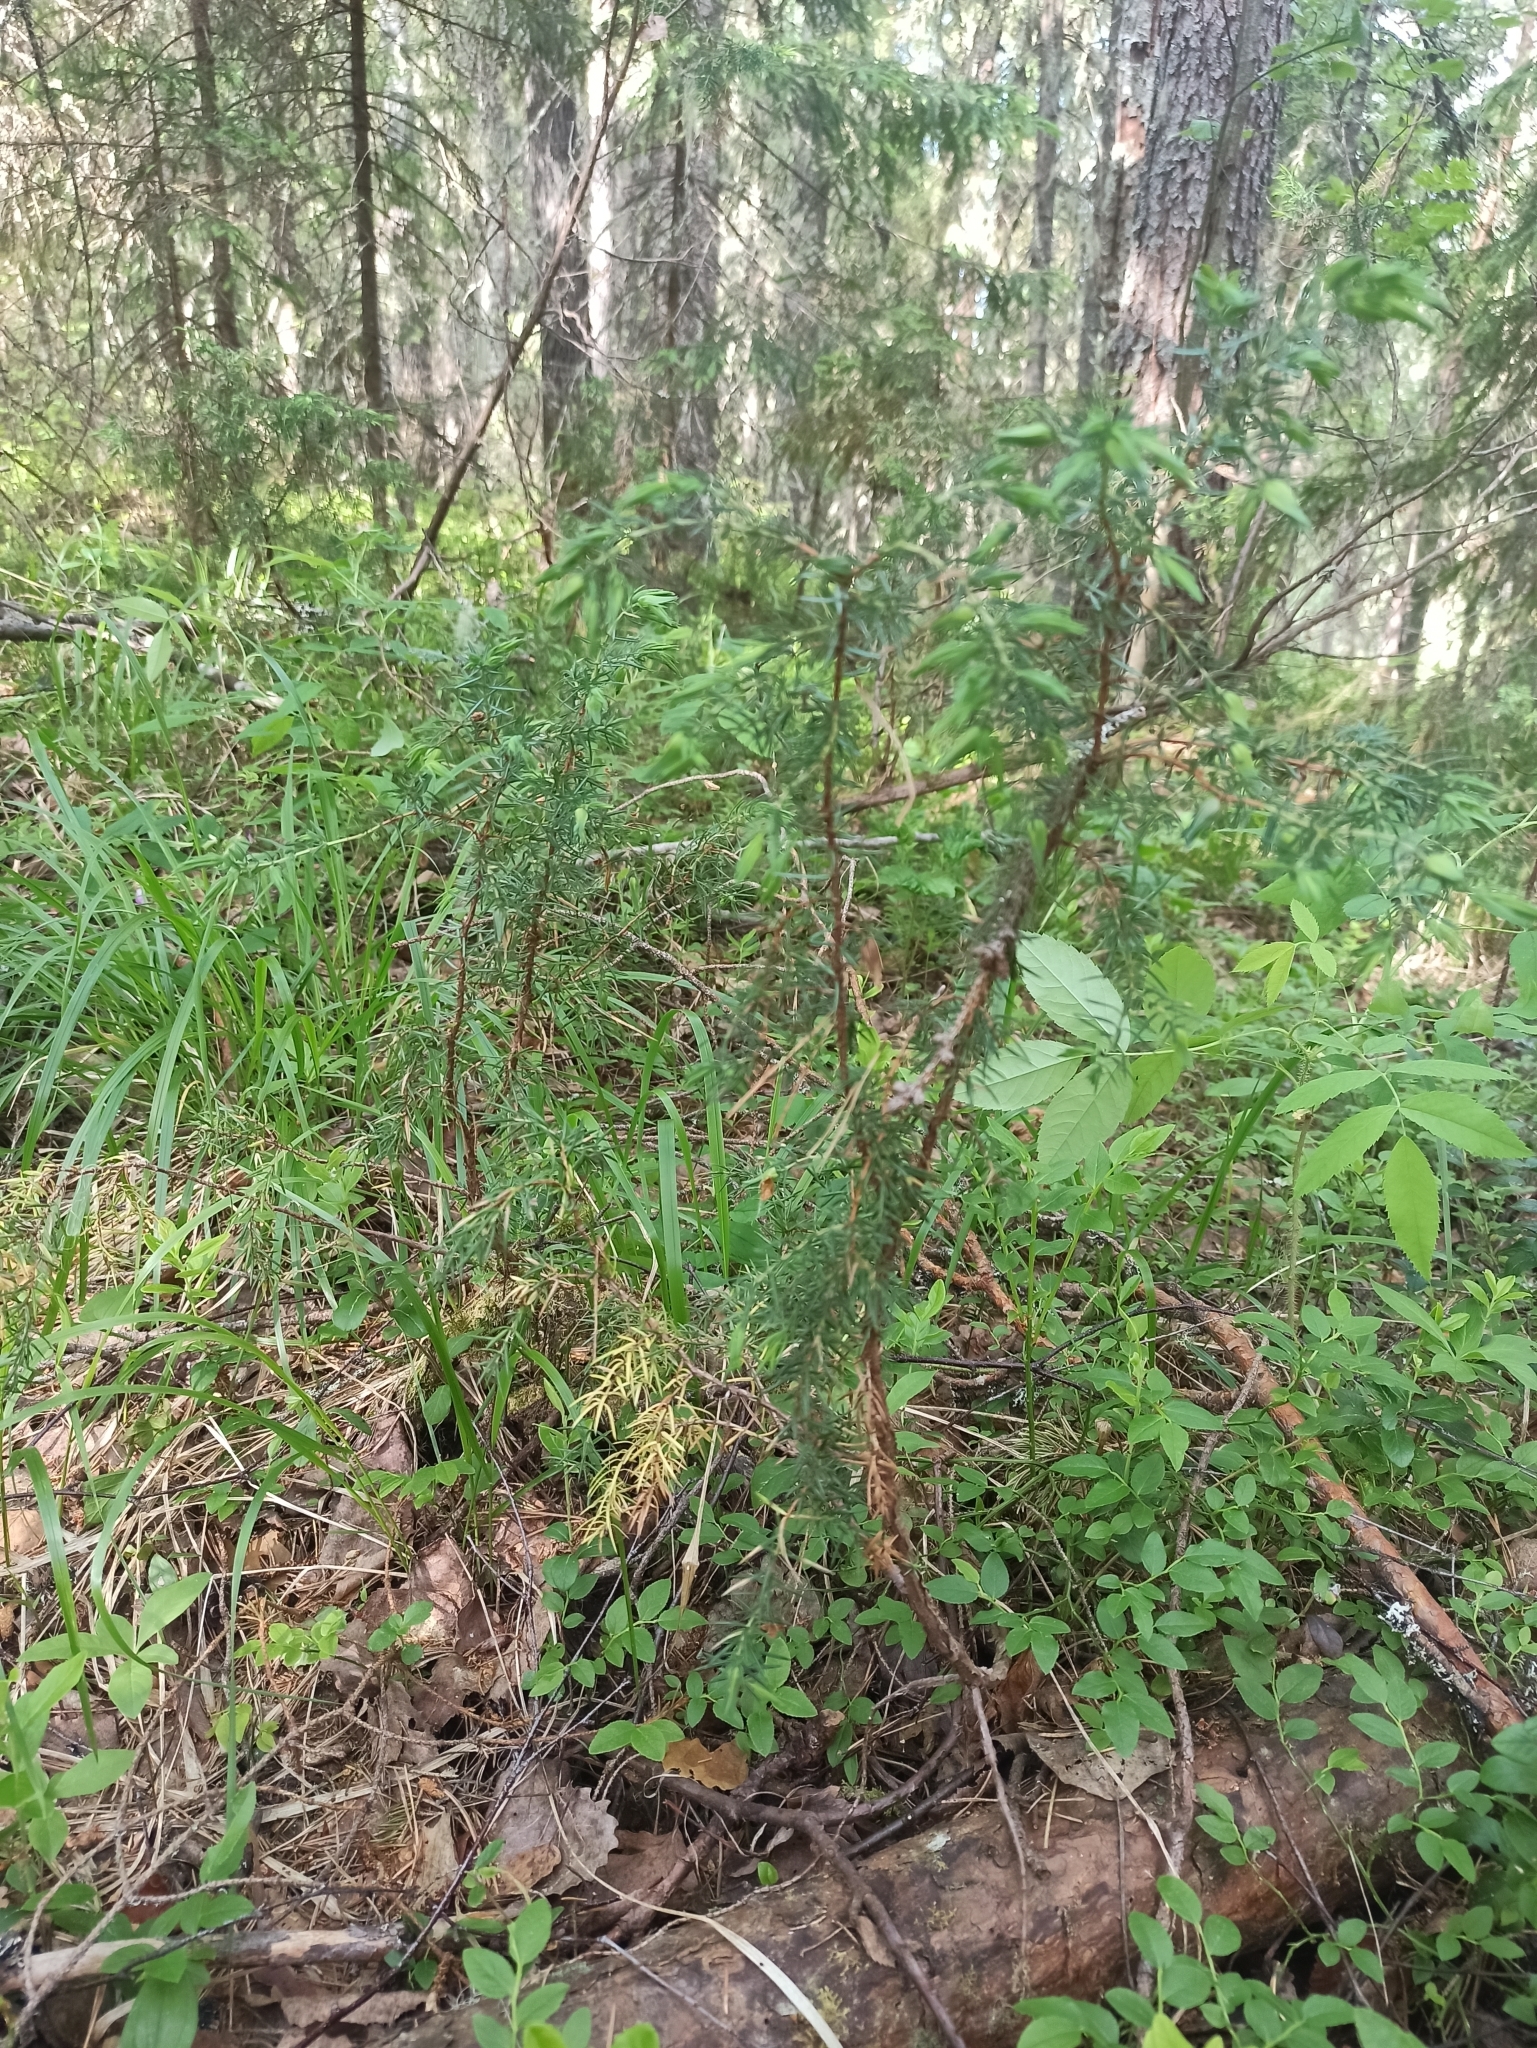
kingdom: Plantae
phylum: Tracheophyta
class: Pinopsida
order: Pinales
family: Cupressaceae
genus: Juniperus
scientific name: Juniperus communis
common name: Common juniper
